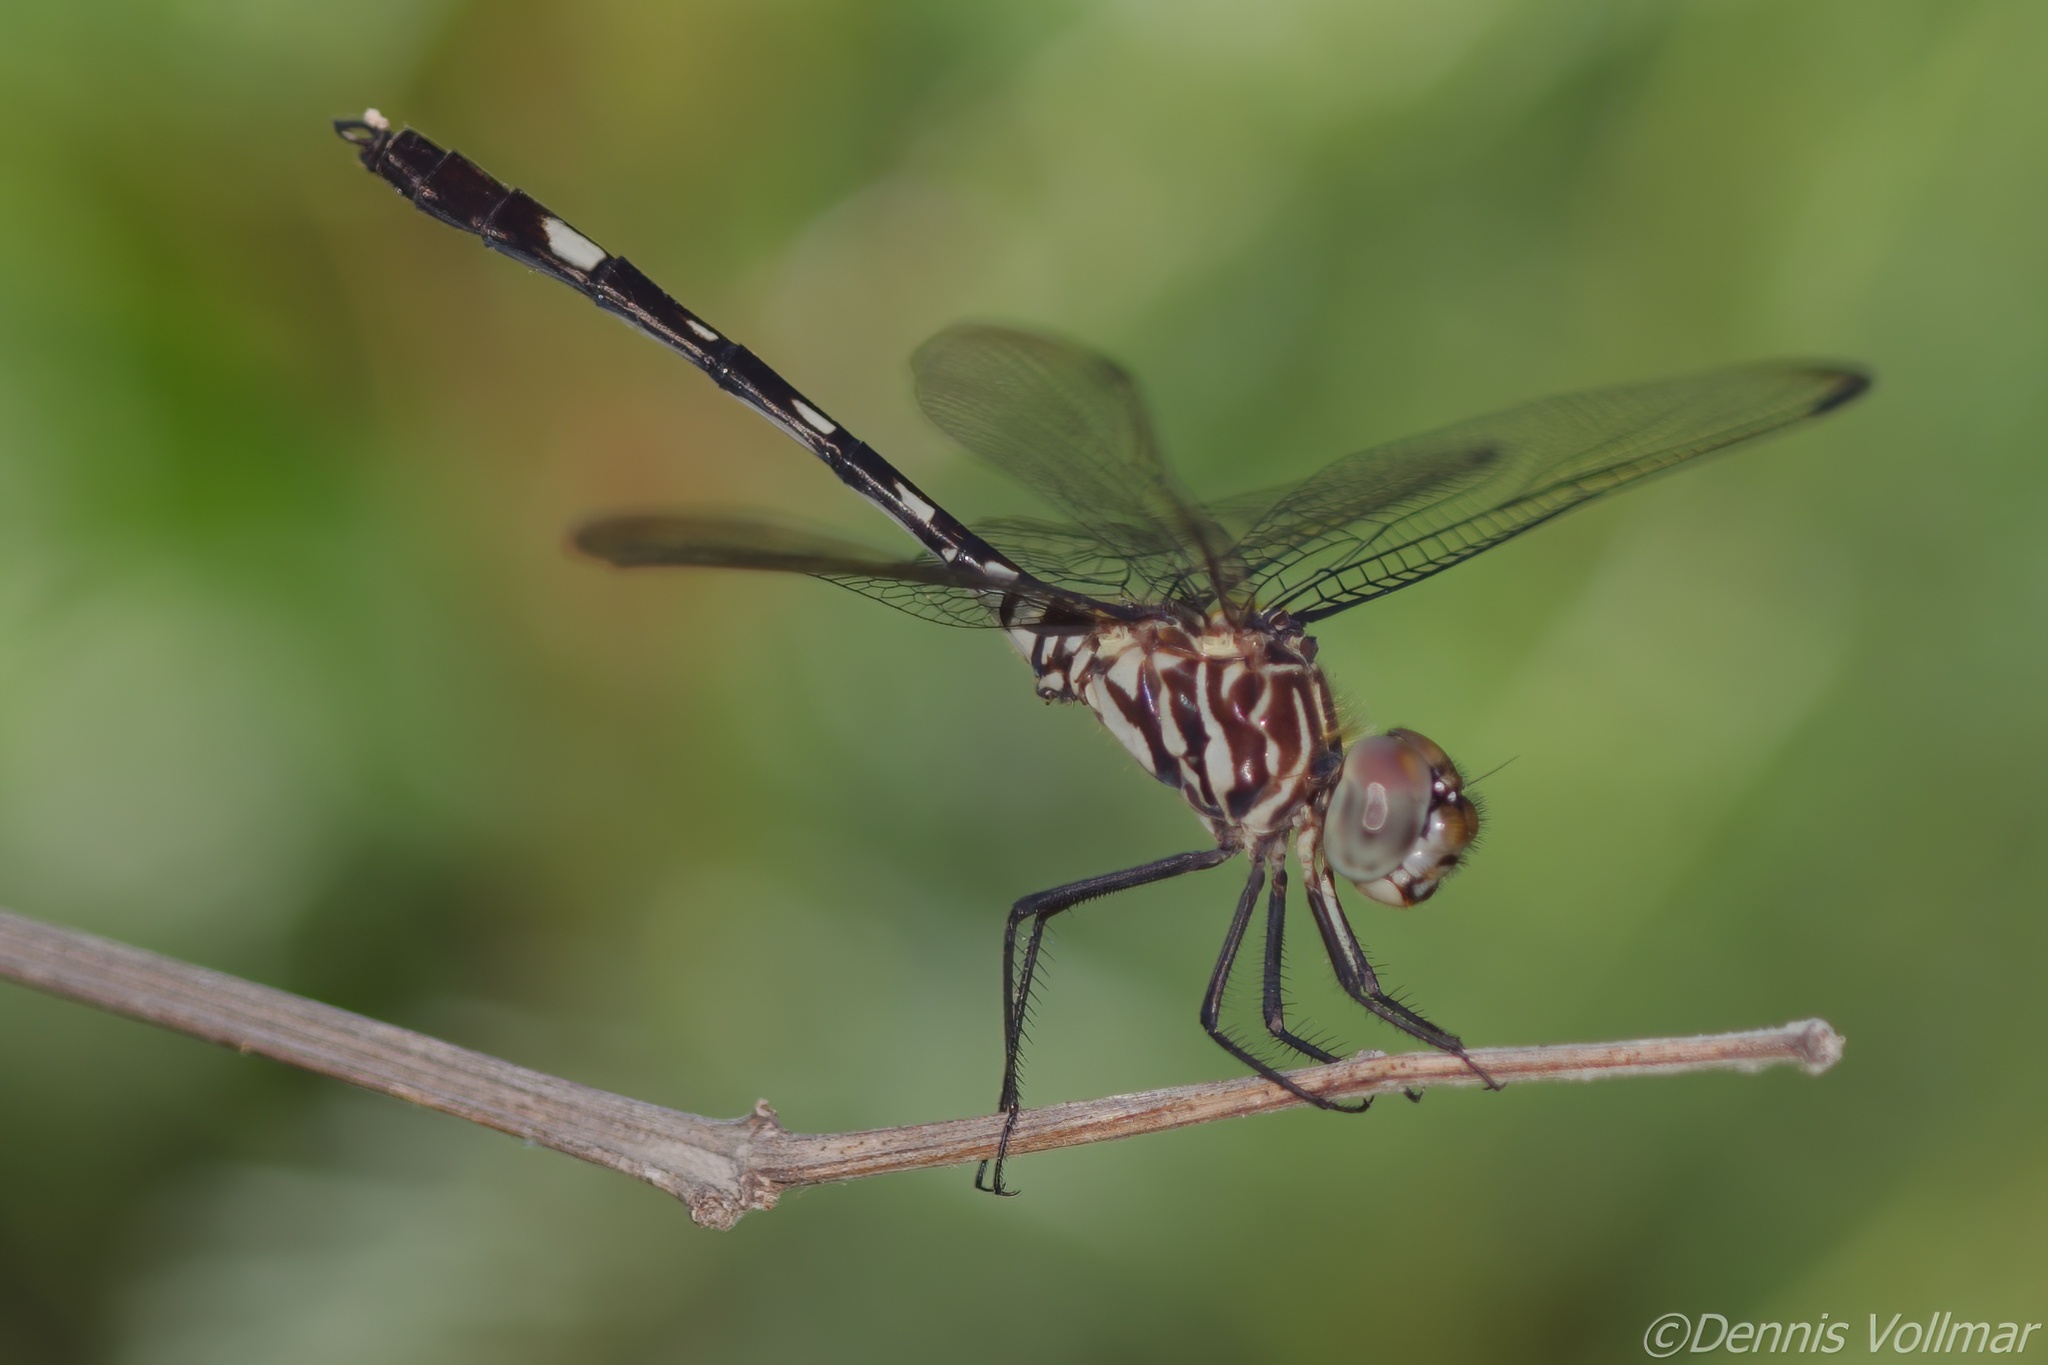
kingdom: Animalia
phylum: Arthropoda
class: Insecta
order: Odonata
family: Libellulidae
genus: Dythemis
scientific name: Dythemis velox
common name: Swift setwing
